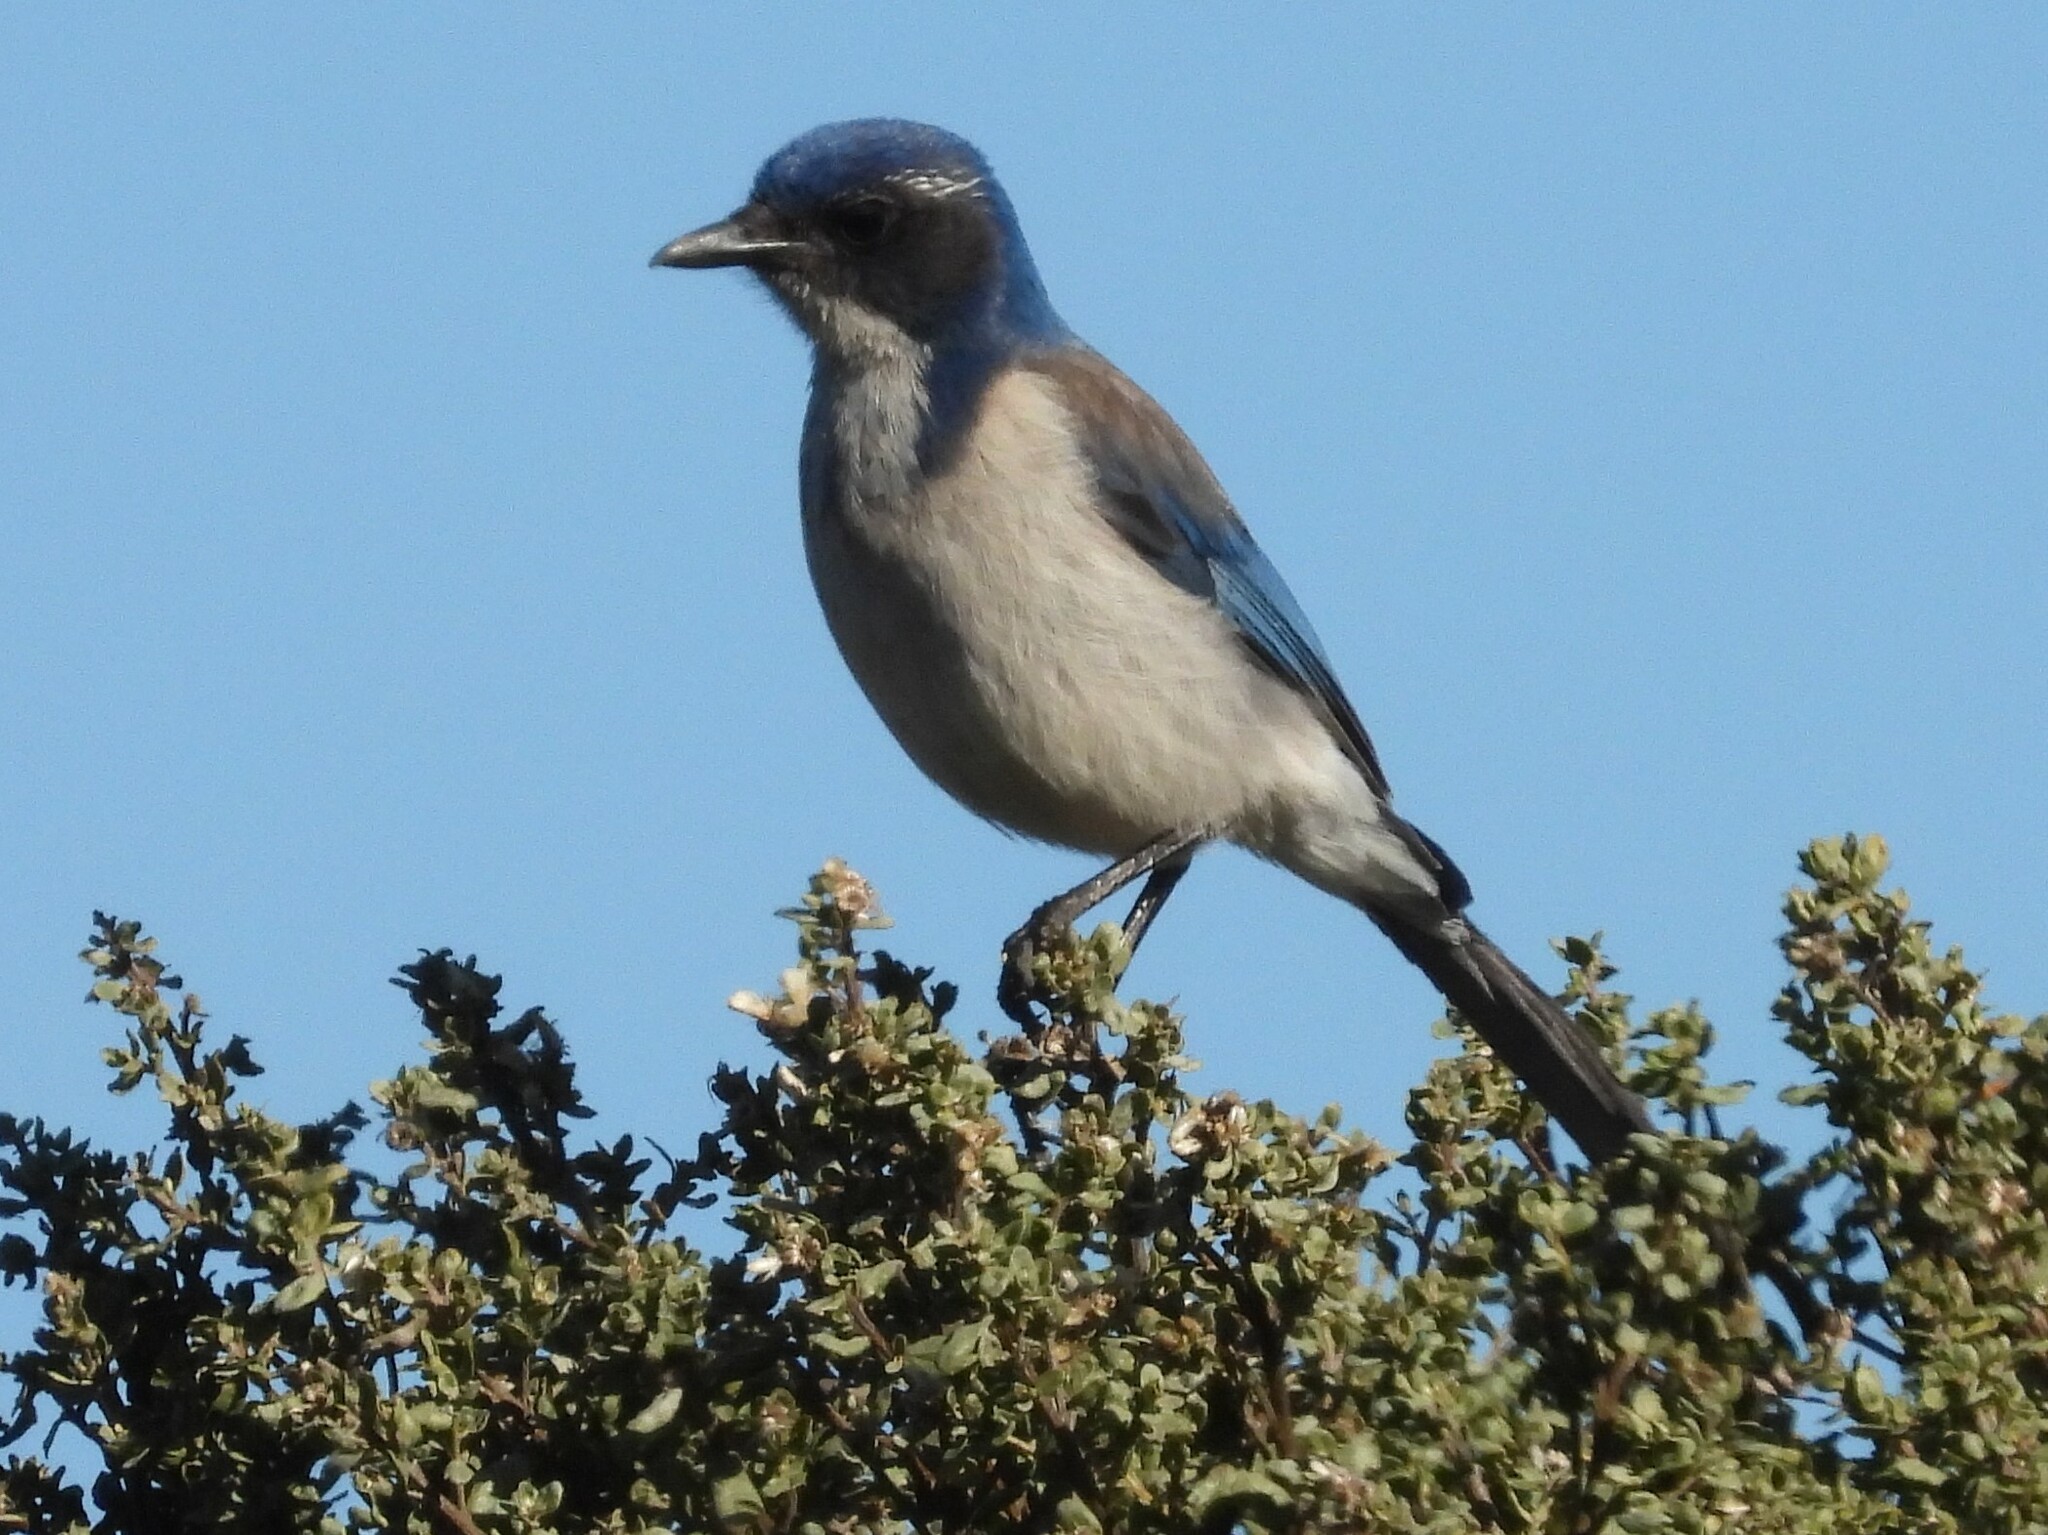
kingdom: Animalia
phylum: Chordata
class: Aves
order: Passeriformes
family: Corvidae
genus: Aphelocoma
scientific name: Aphelocoma californica
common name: California scrub-jay
